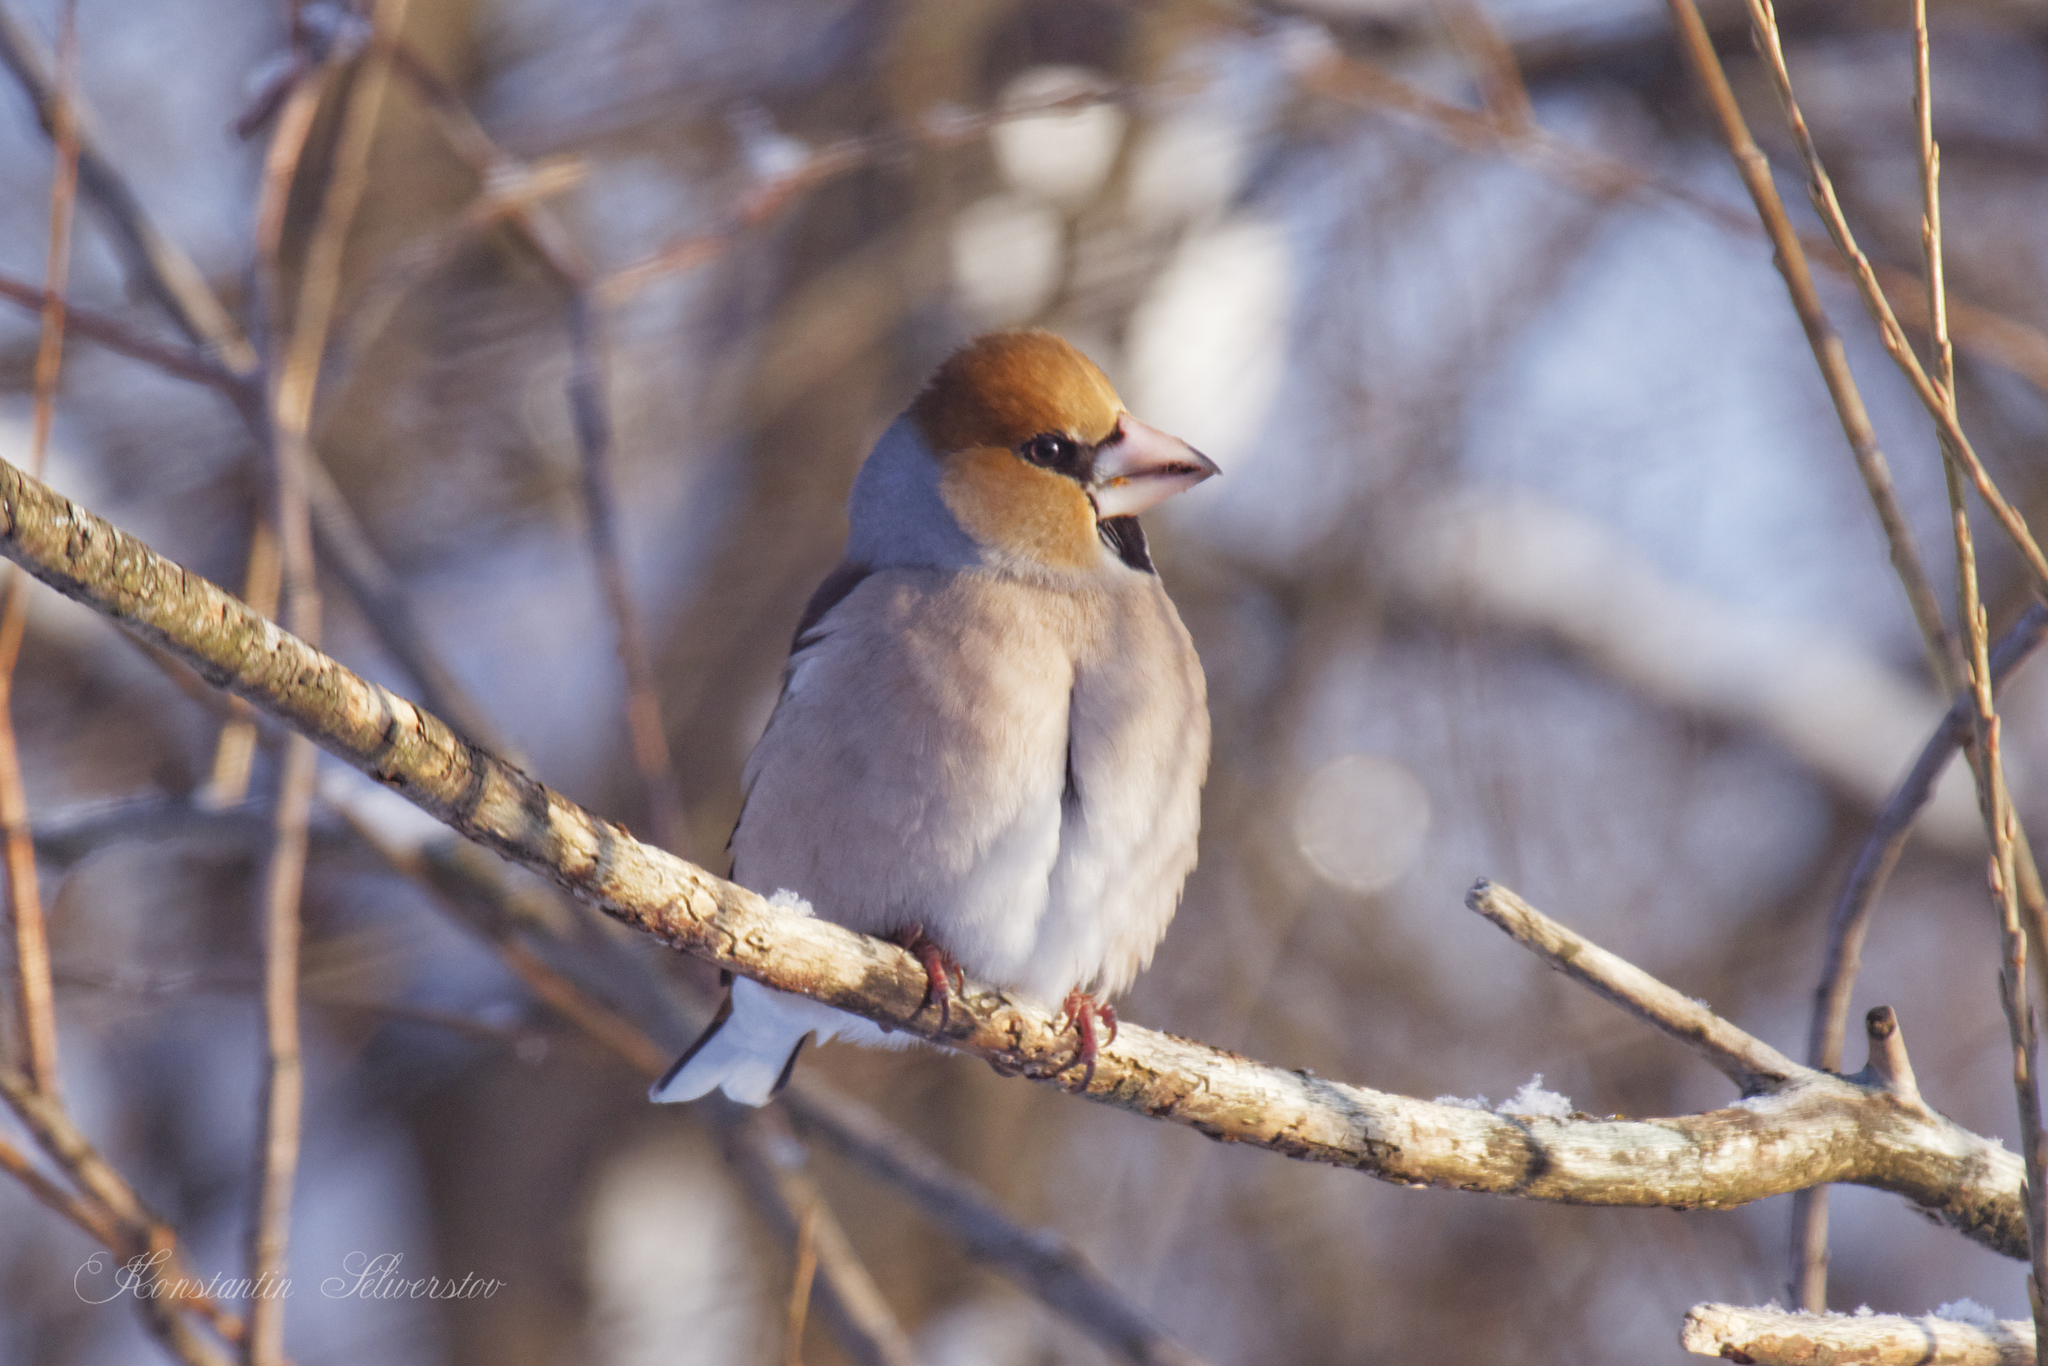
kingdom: Animalia
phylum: Chordata
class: Aves
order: Passeriformes
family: Fringillidae
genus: Coccothraustes
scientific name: Coccothraustes coccothraustes
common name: Hawfinch
